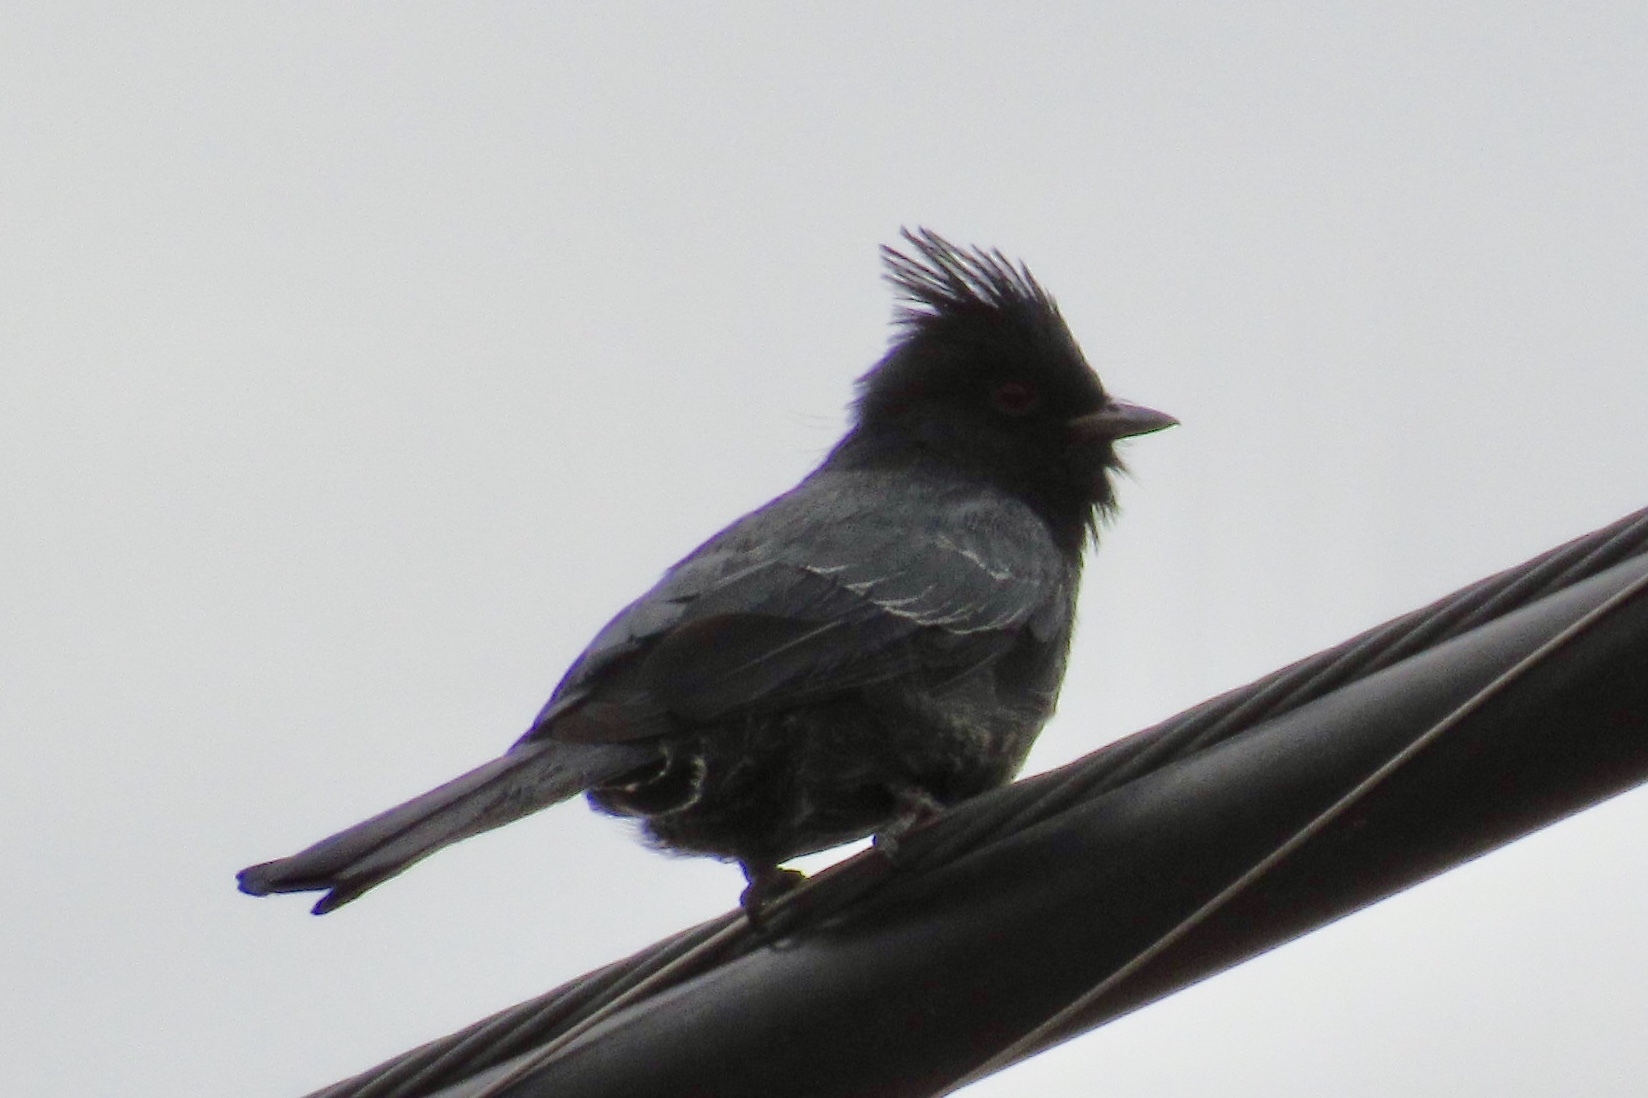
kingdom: Animalia
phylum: Chordata
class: Aves
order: Passeriformes
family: Ptilogonatidae
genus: Phainopepla
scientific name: Phainopepla nitens
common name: Phainopepla
